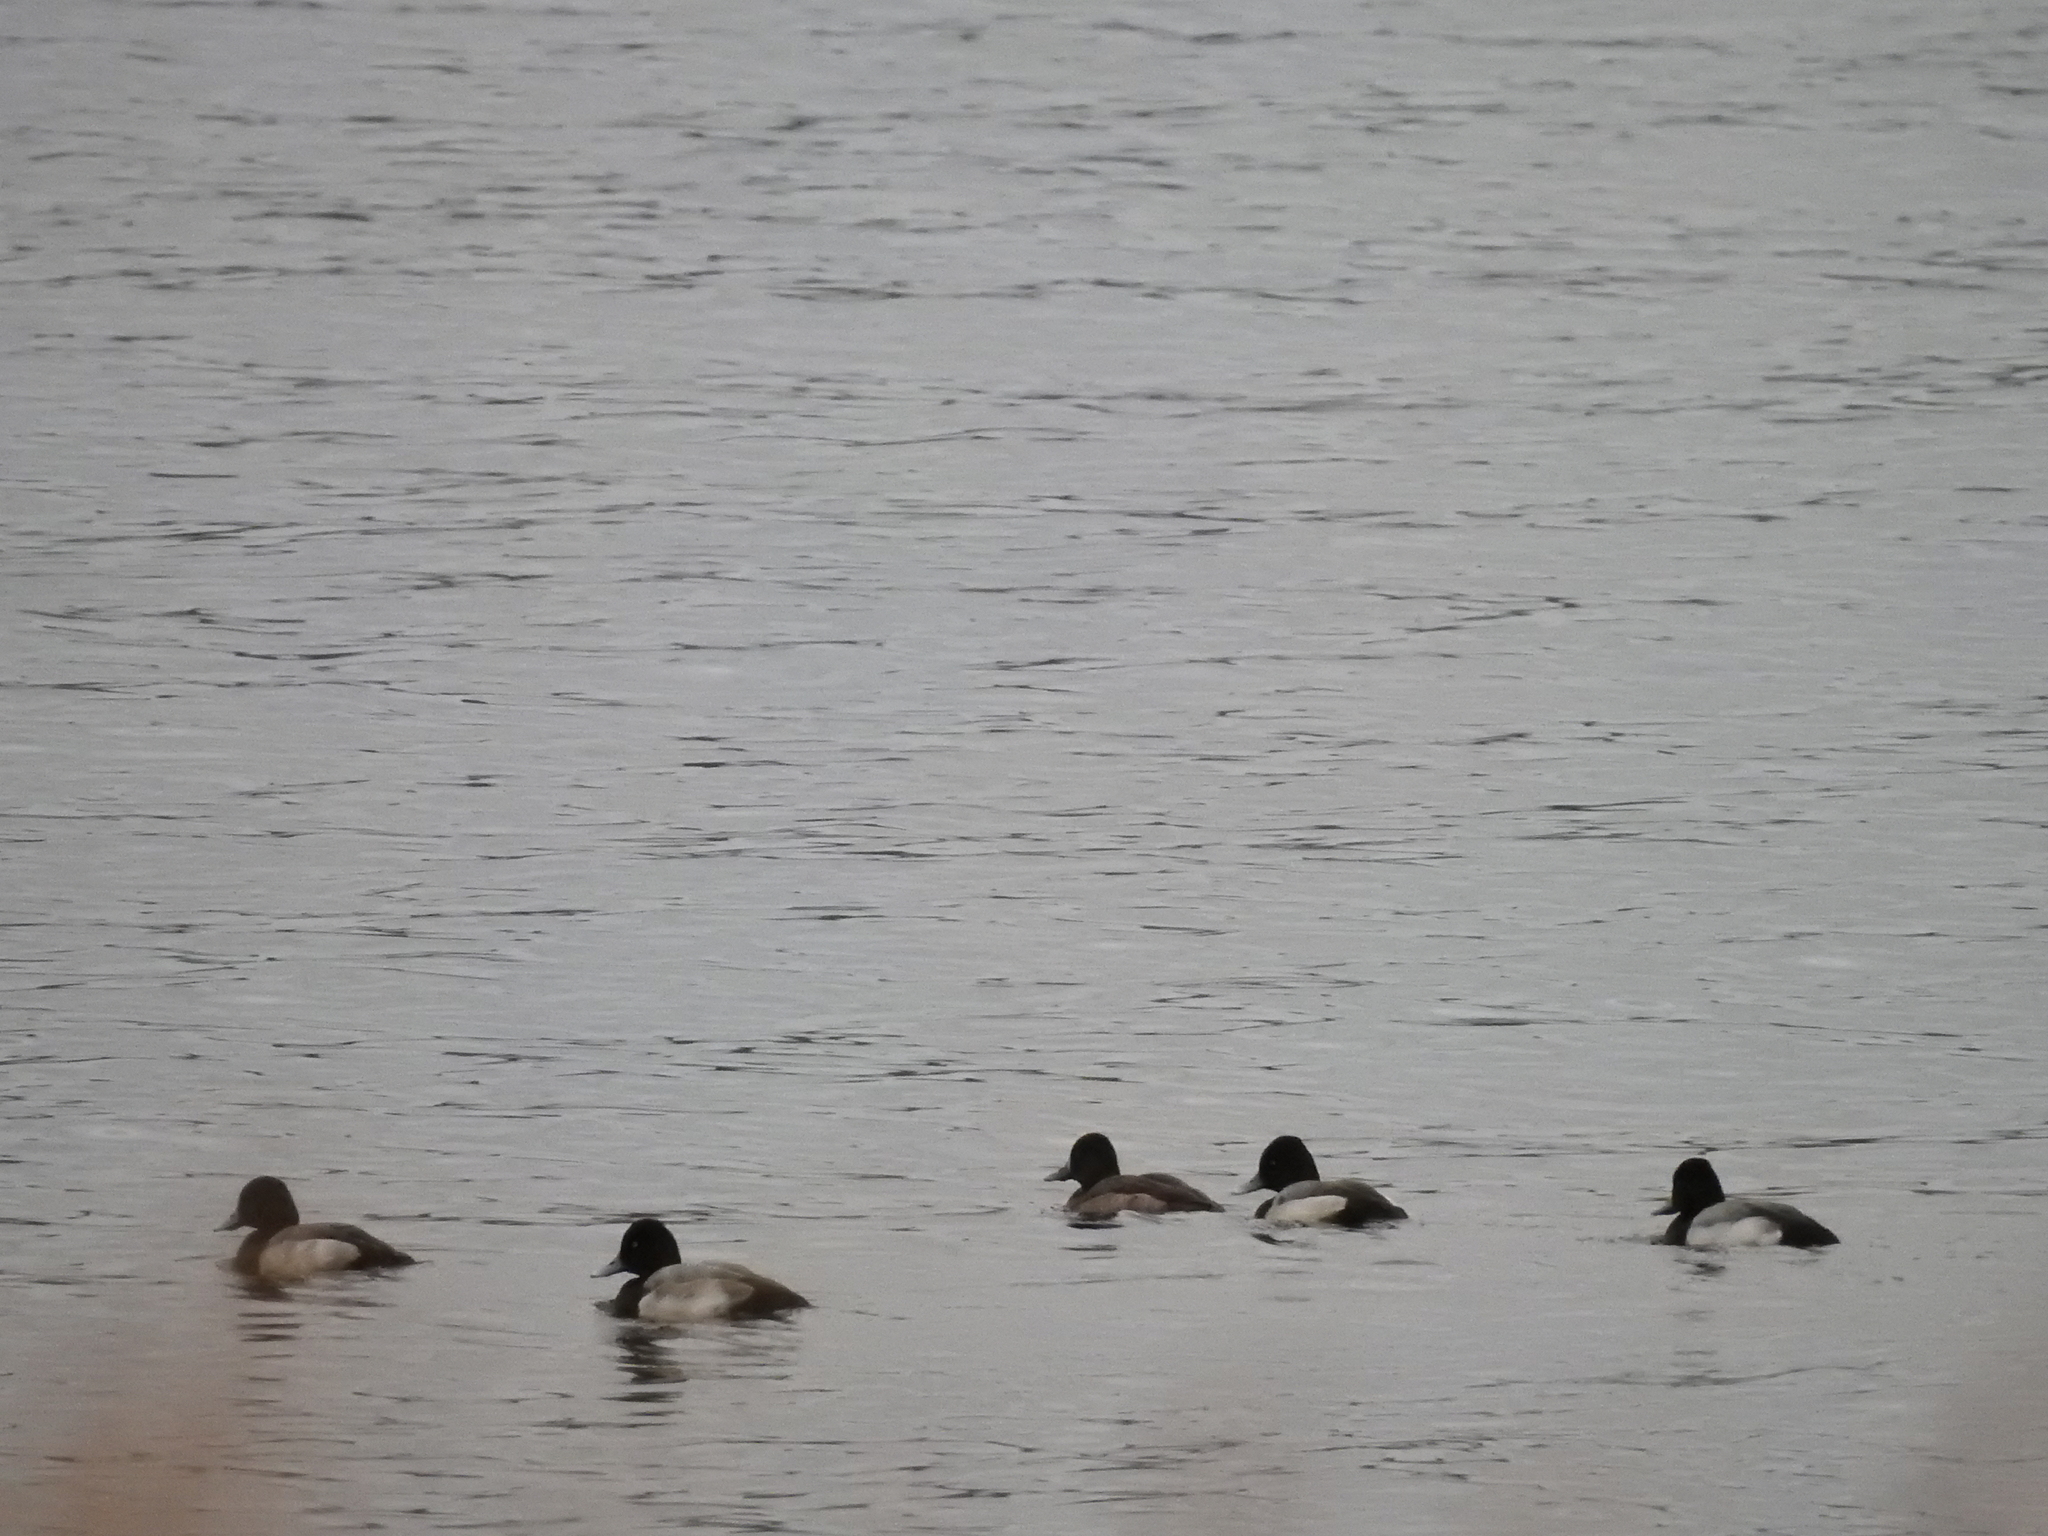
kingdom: Animalia
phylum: Chordata
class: Aves
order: Anseriformes
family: Anatidae
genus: Aythya
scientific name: Aythya affinis
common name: Lesser scaup
